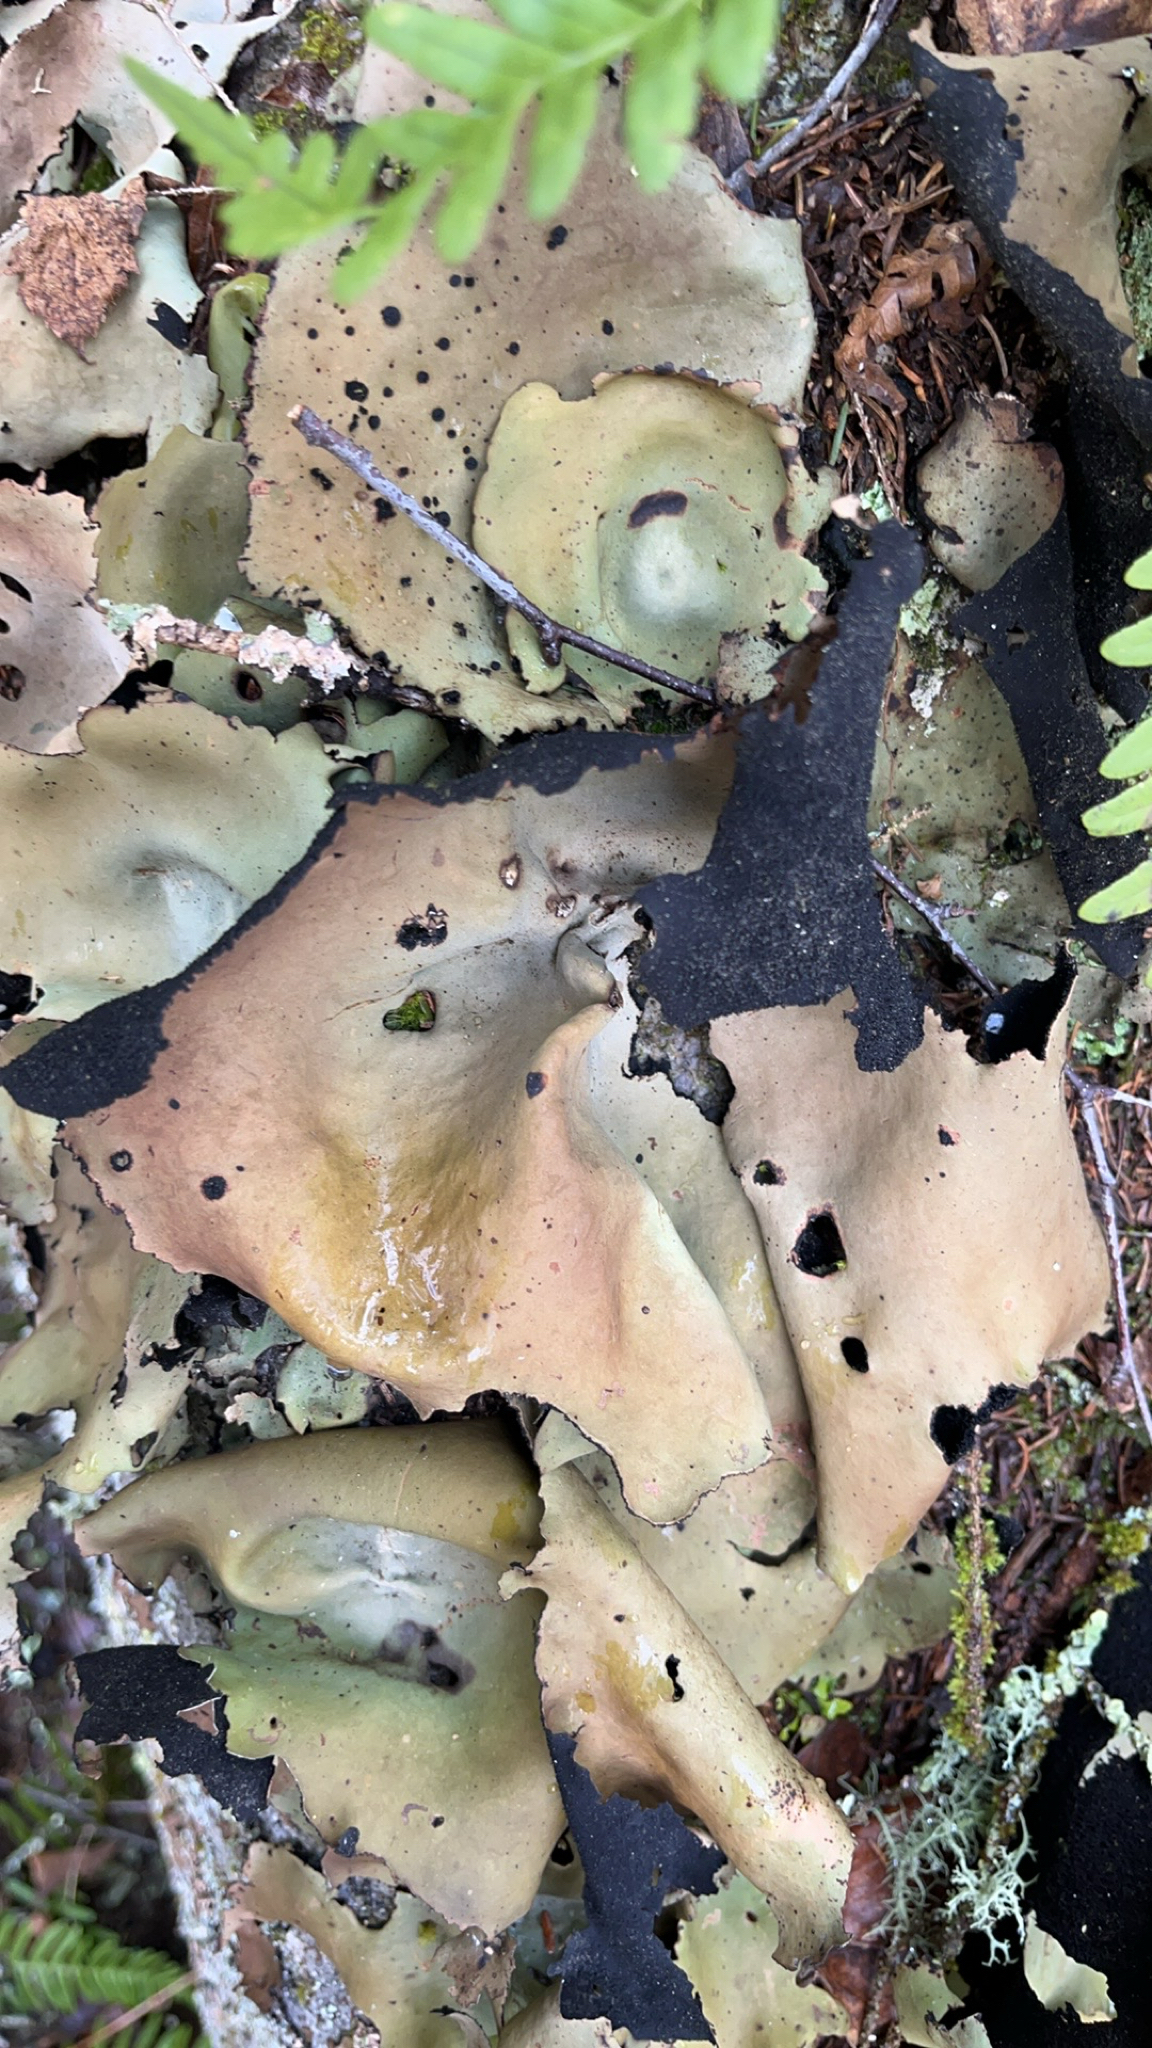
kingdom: Fungi
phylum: Ascomycota
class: Lecanoromycetes
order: Umbilicariales
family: Umbilicariaceae
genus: Umbilicaria
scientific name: Umbilicaria mammulata
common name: Smooth rock tripe
